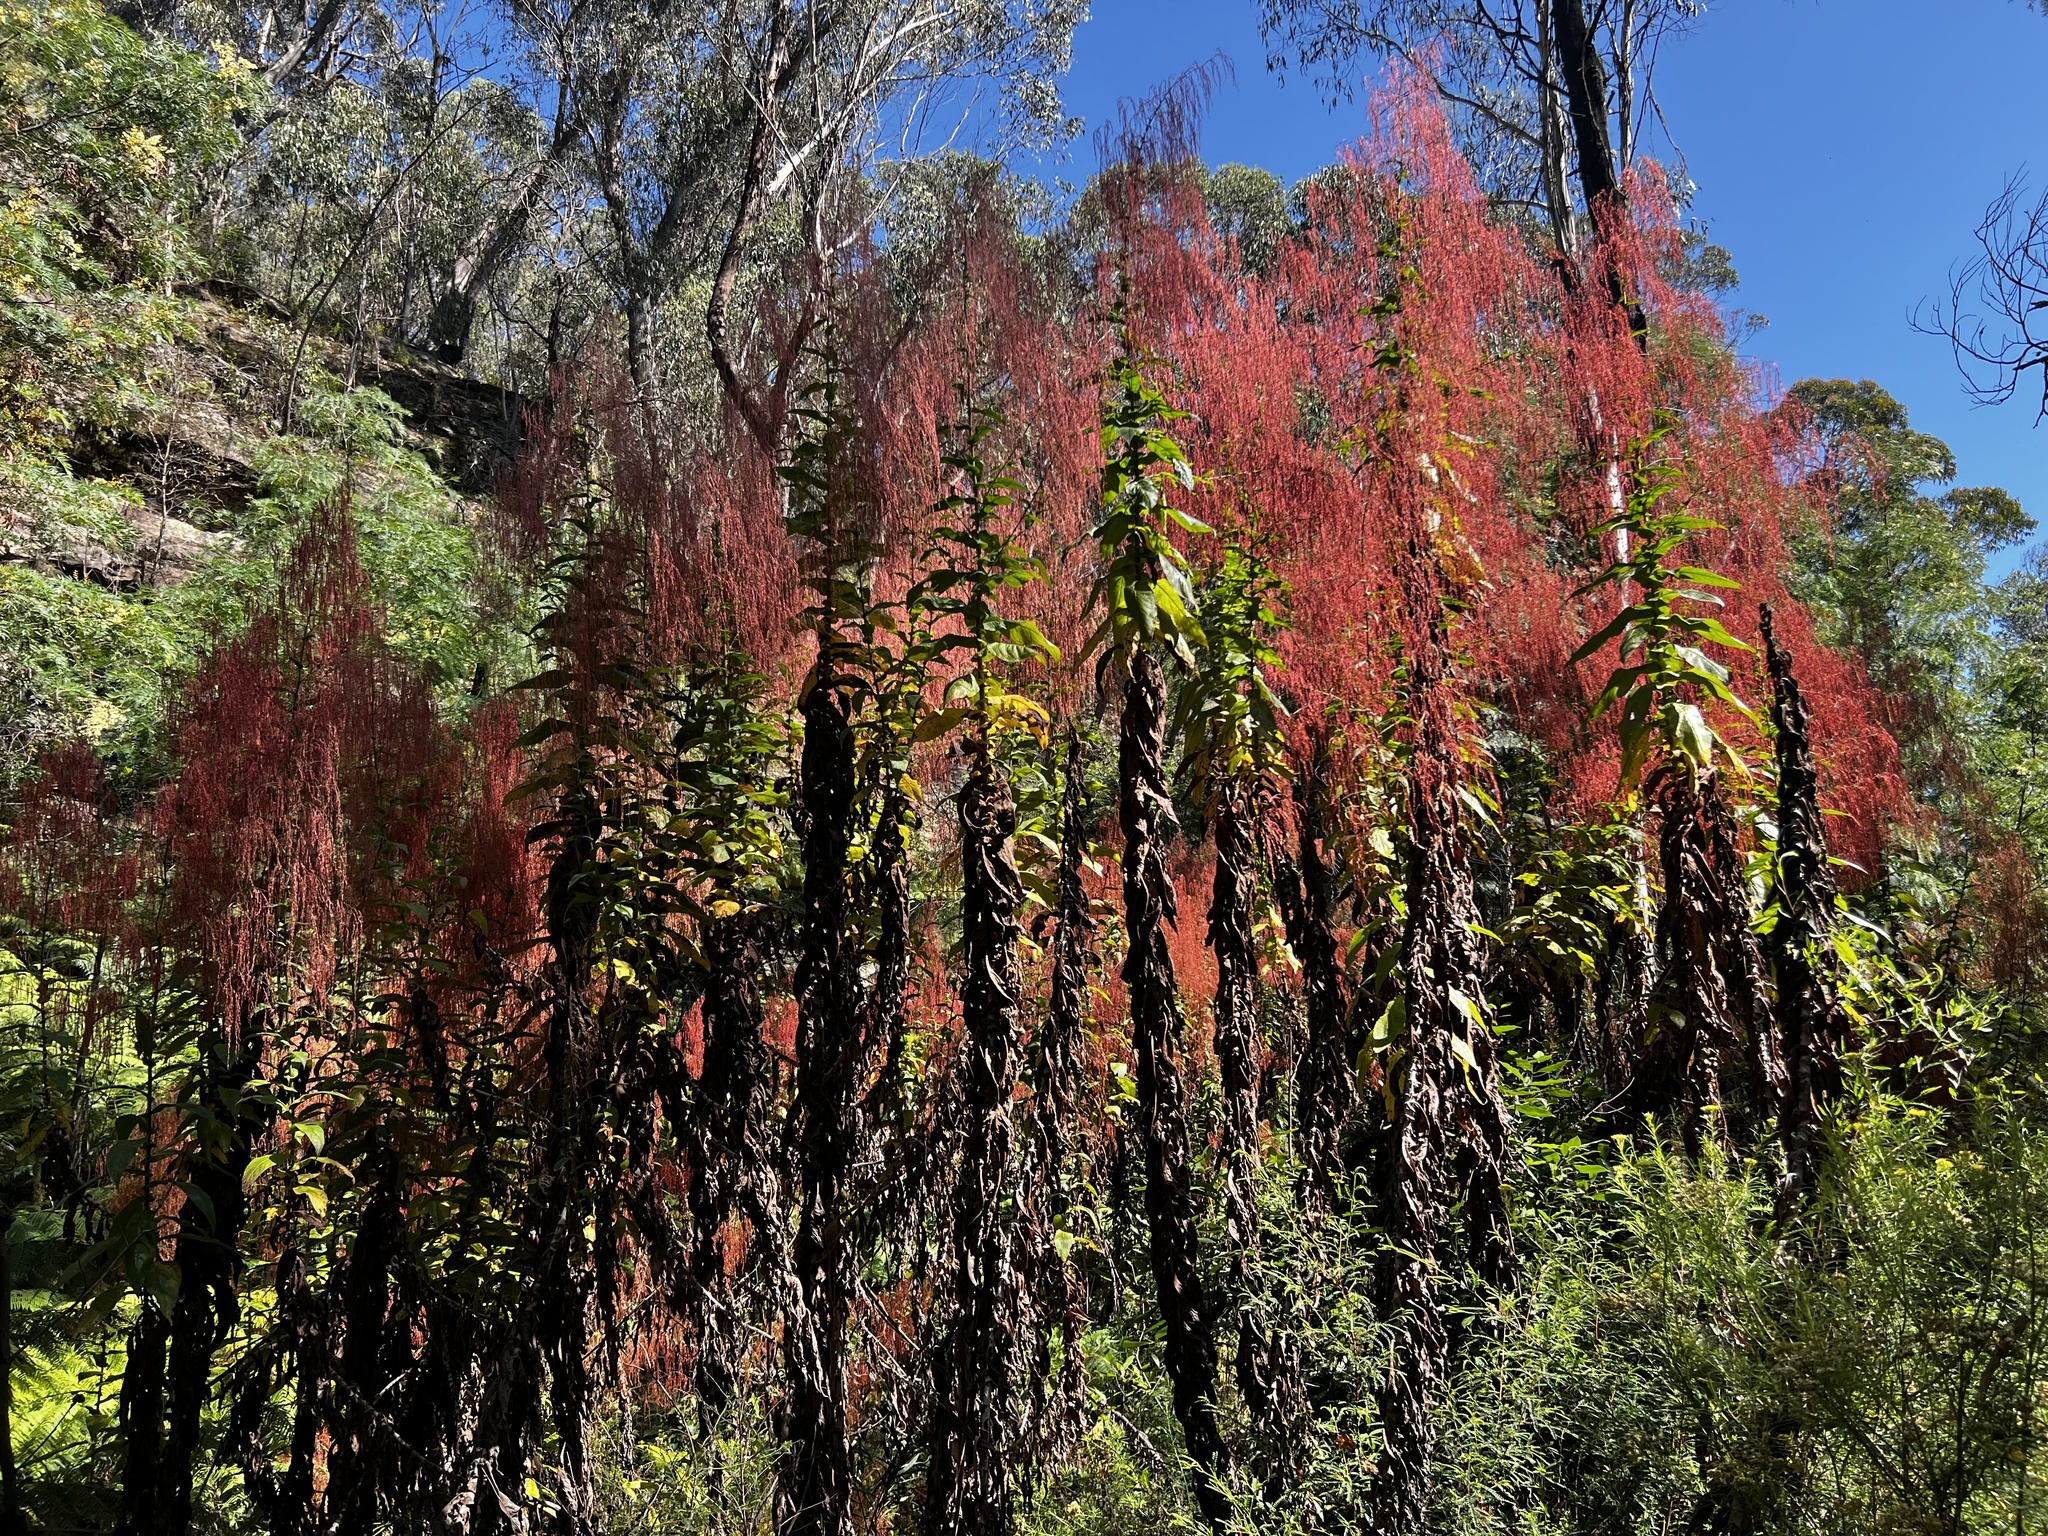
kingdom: Plantae
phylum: Tracheophyta
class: Magnoliopsida
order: Asterales
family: Asteraceae
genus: Calomeria
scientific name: Calomeria amaranthoides
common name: Incenseplant
